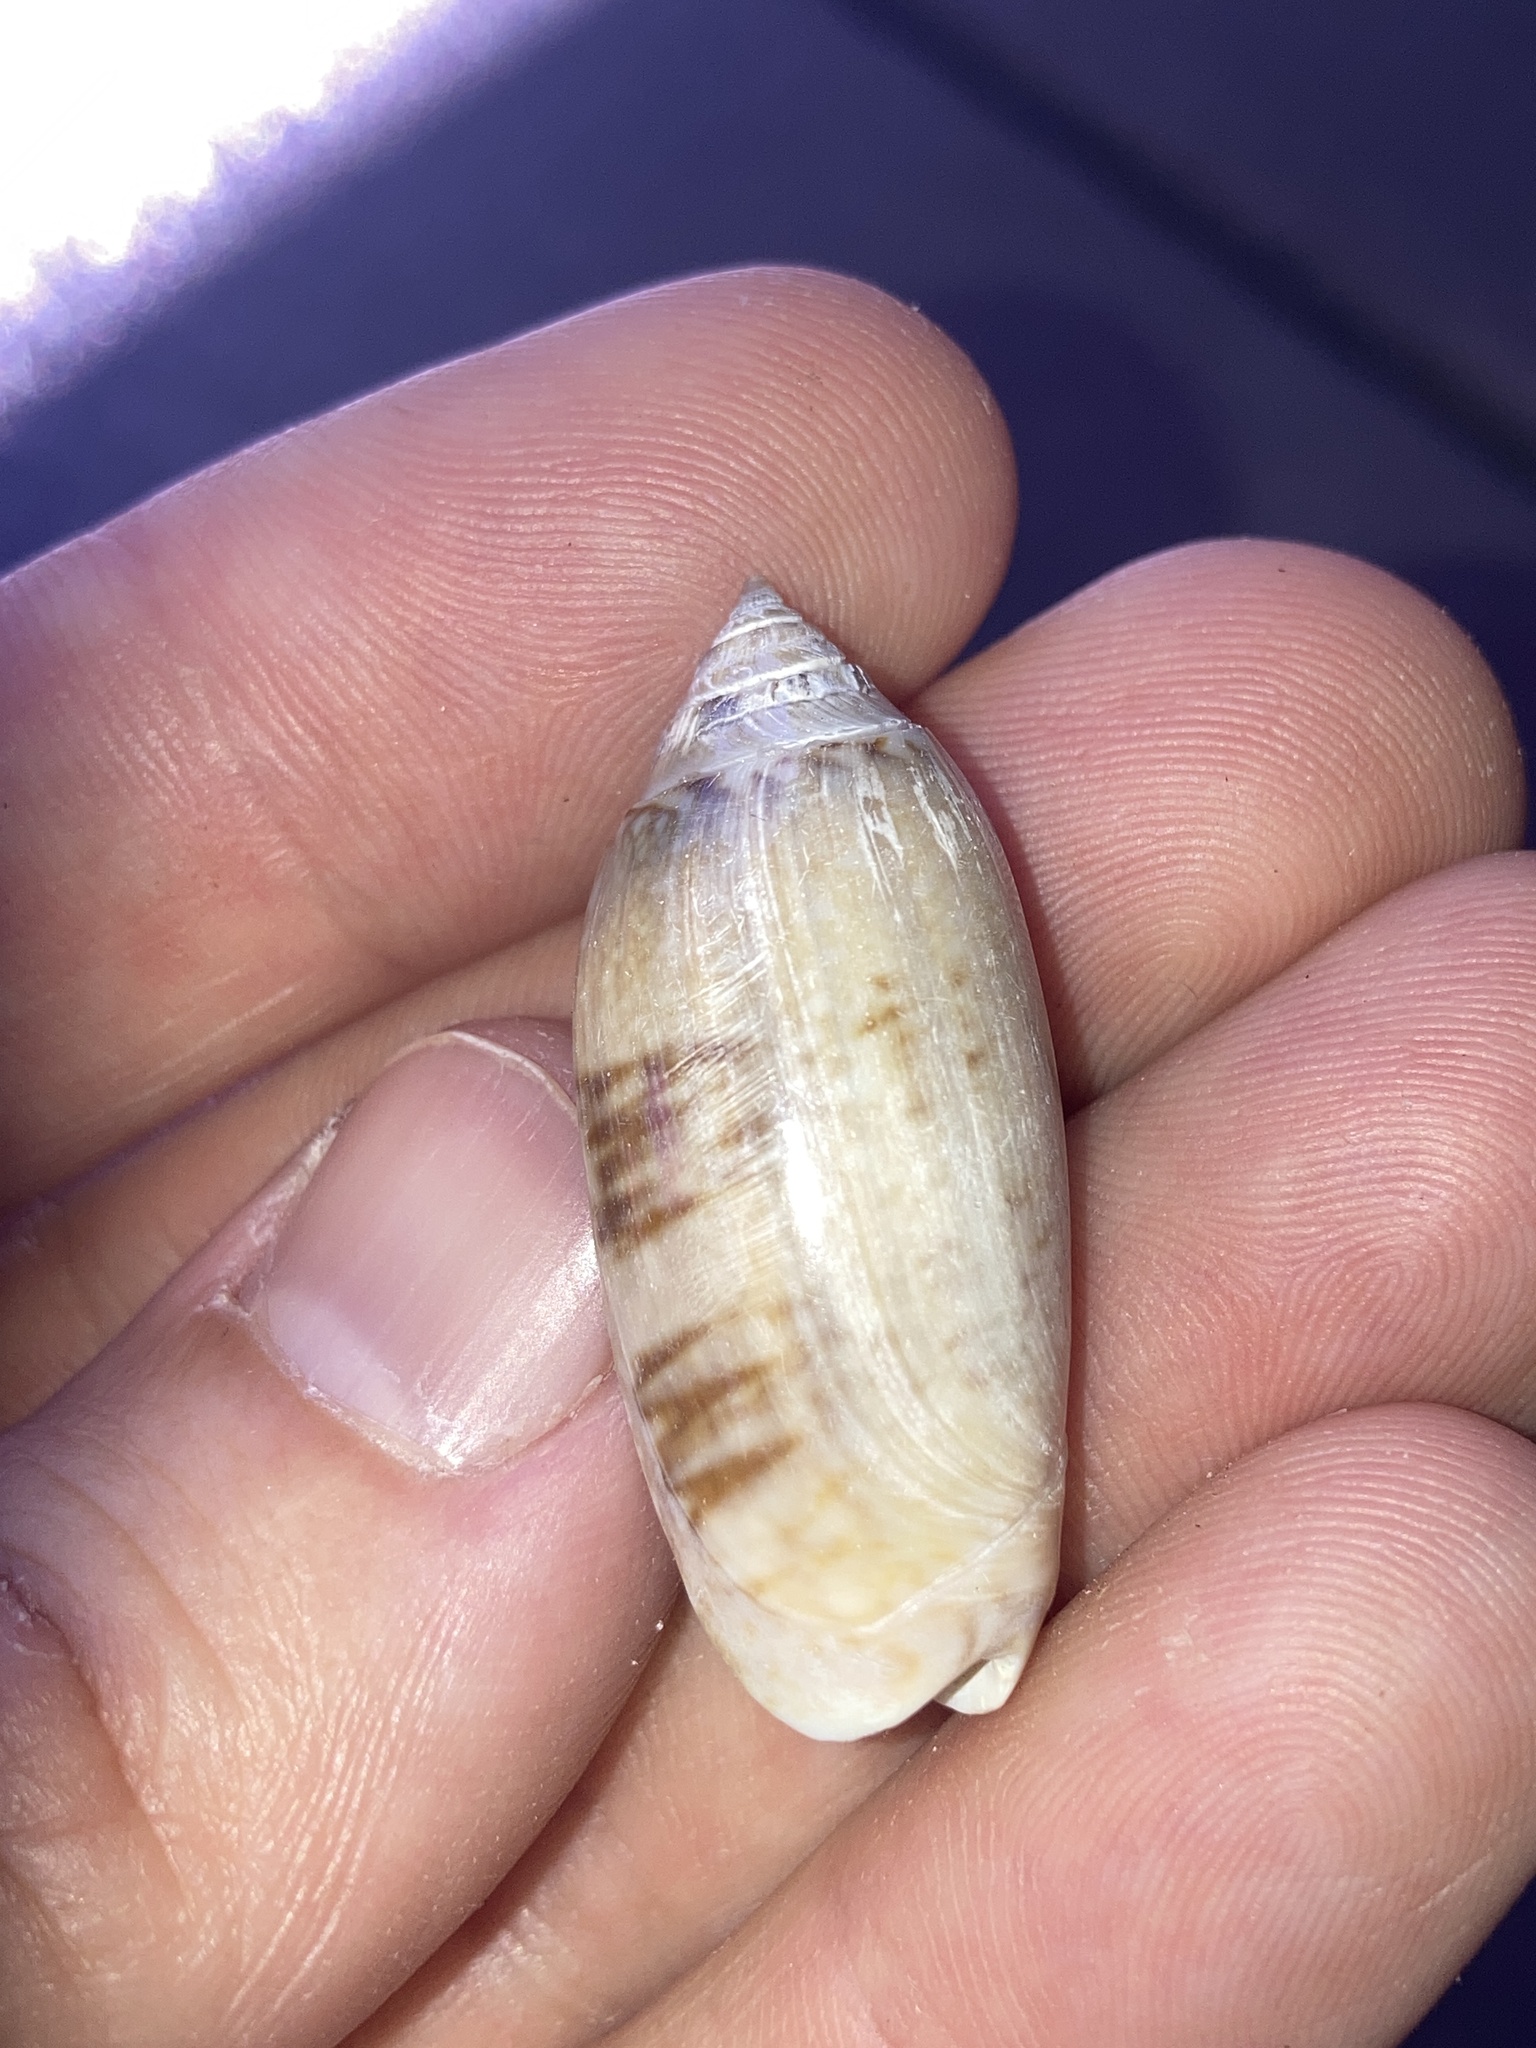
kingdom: Animalia
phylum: Mollusca
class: Gastropoda
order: Neogastropoda
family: Olividae
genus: Oliva
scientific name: Oliva sayana
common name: Lettered olive
